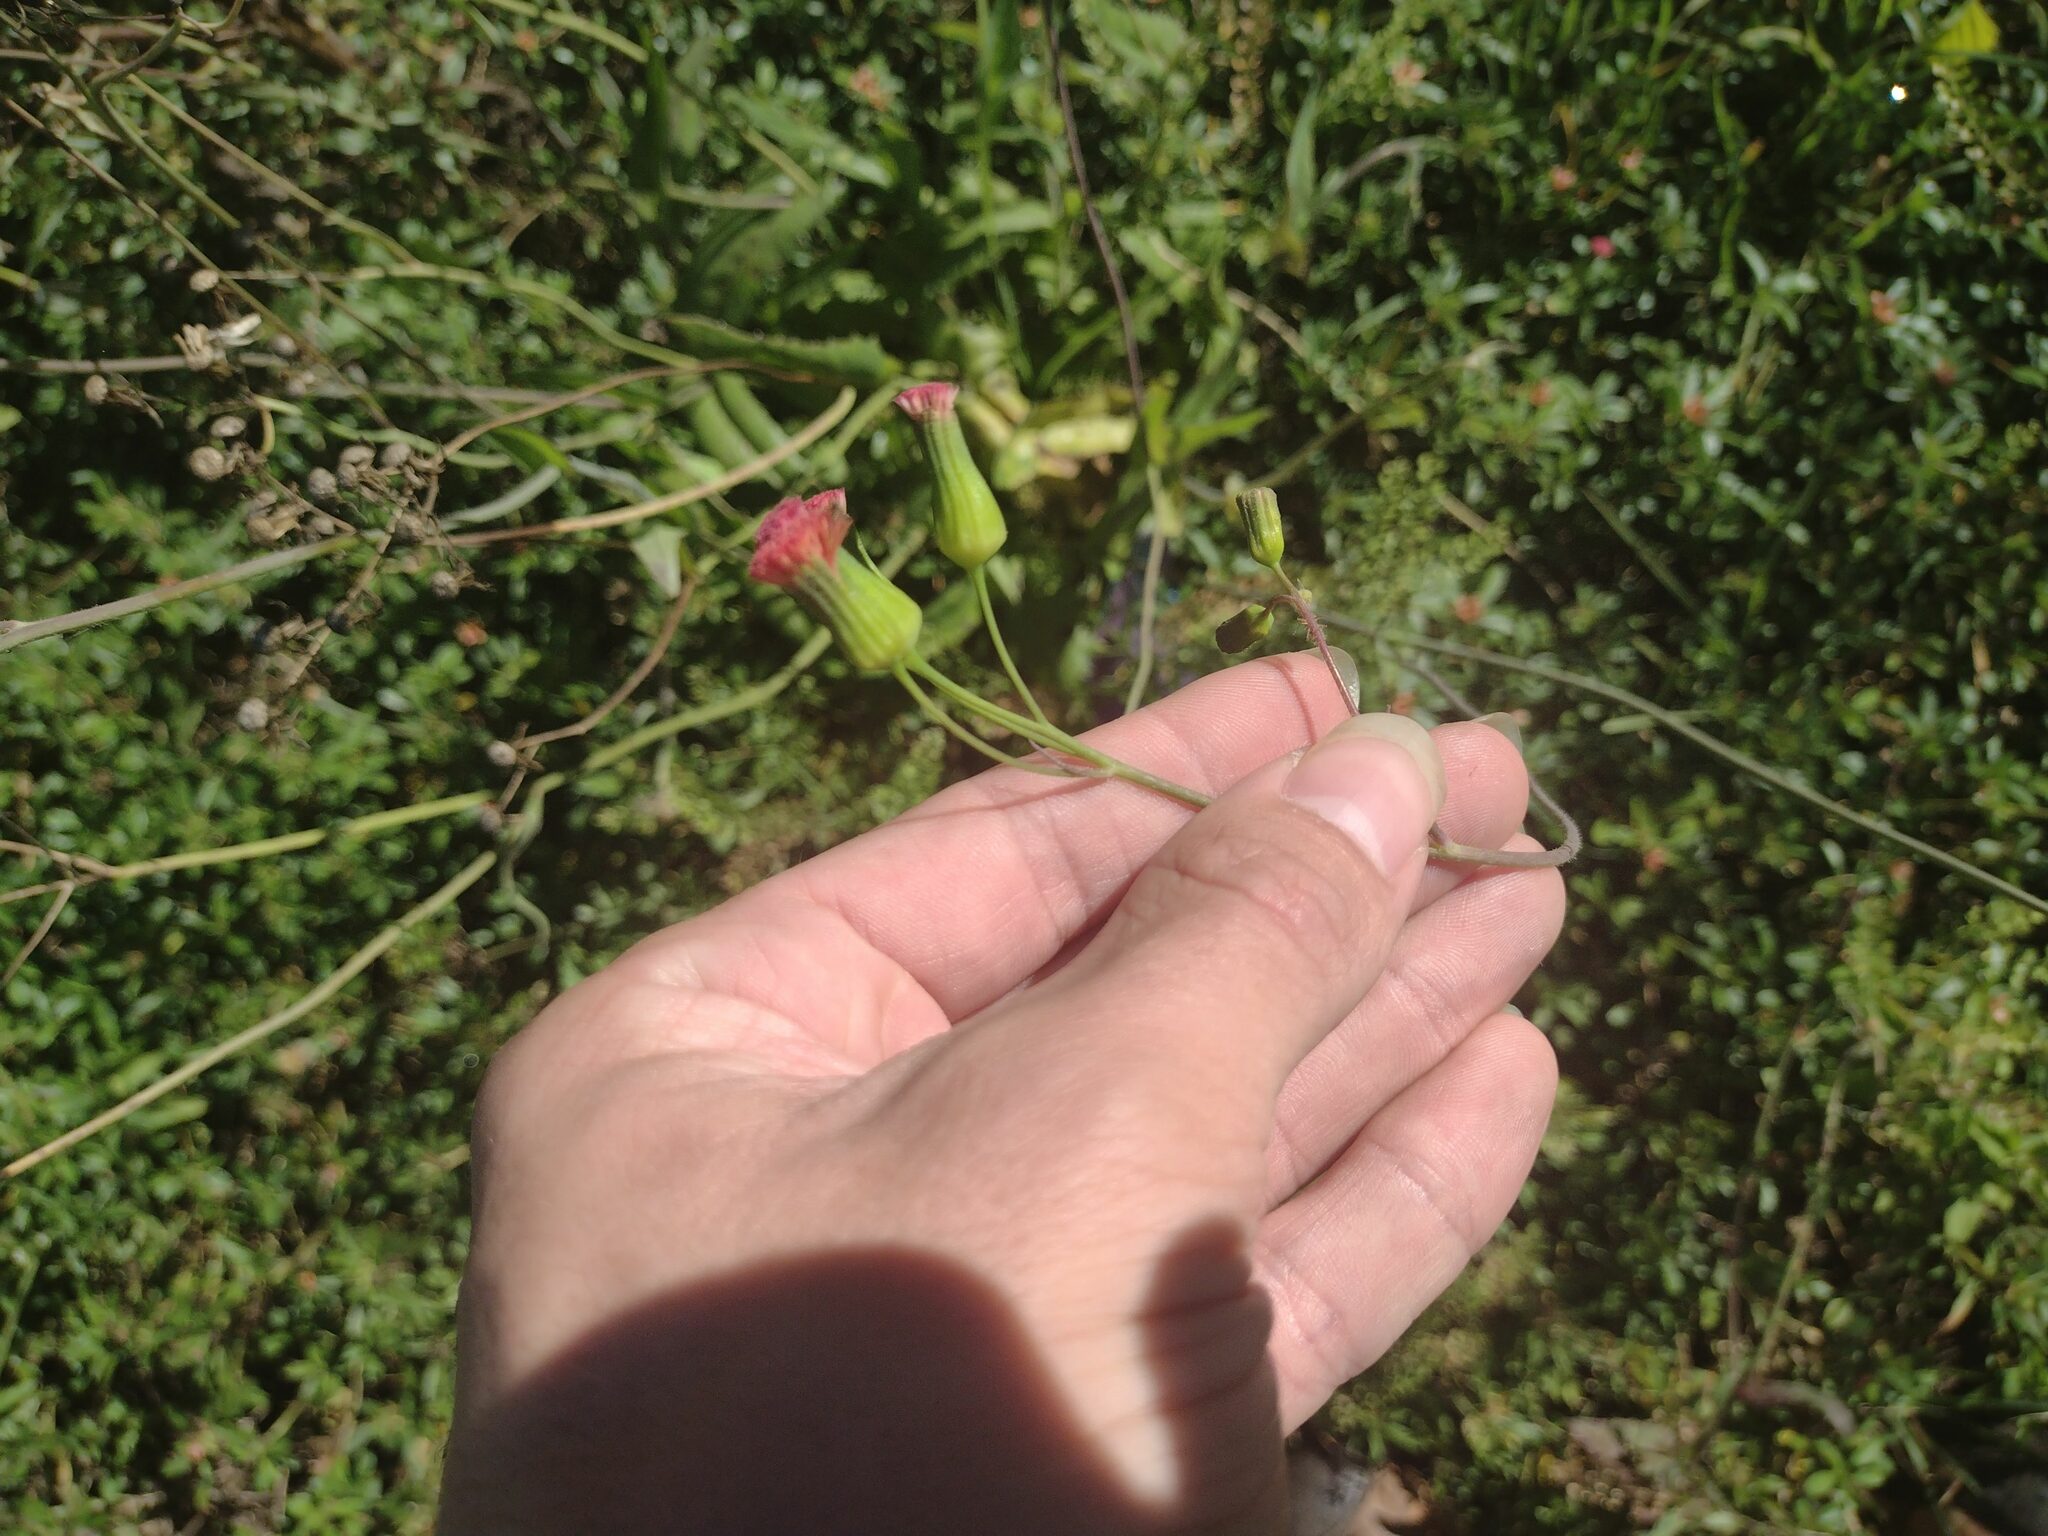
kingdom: Plantae
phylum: Tracheophyta
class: Magnoliopsida
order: Asterales
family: Asteraceae
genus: Emilia
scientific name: Emilia fosbergii
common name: Florida tasselflower
